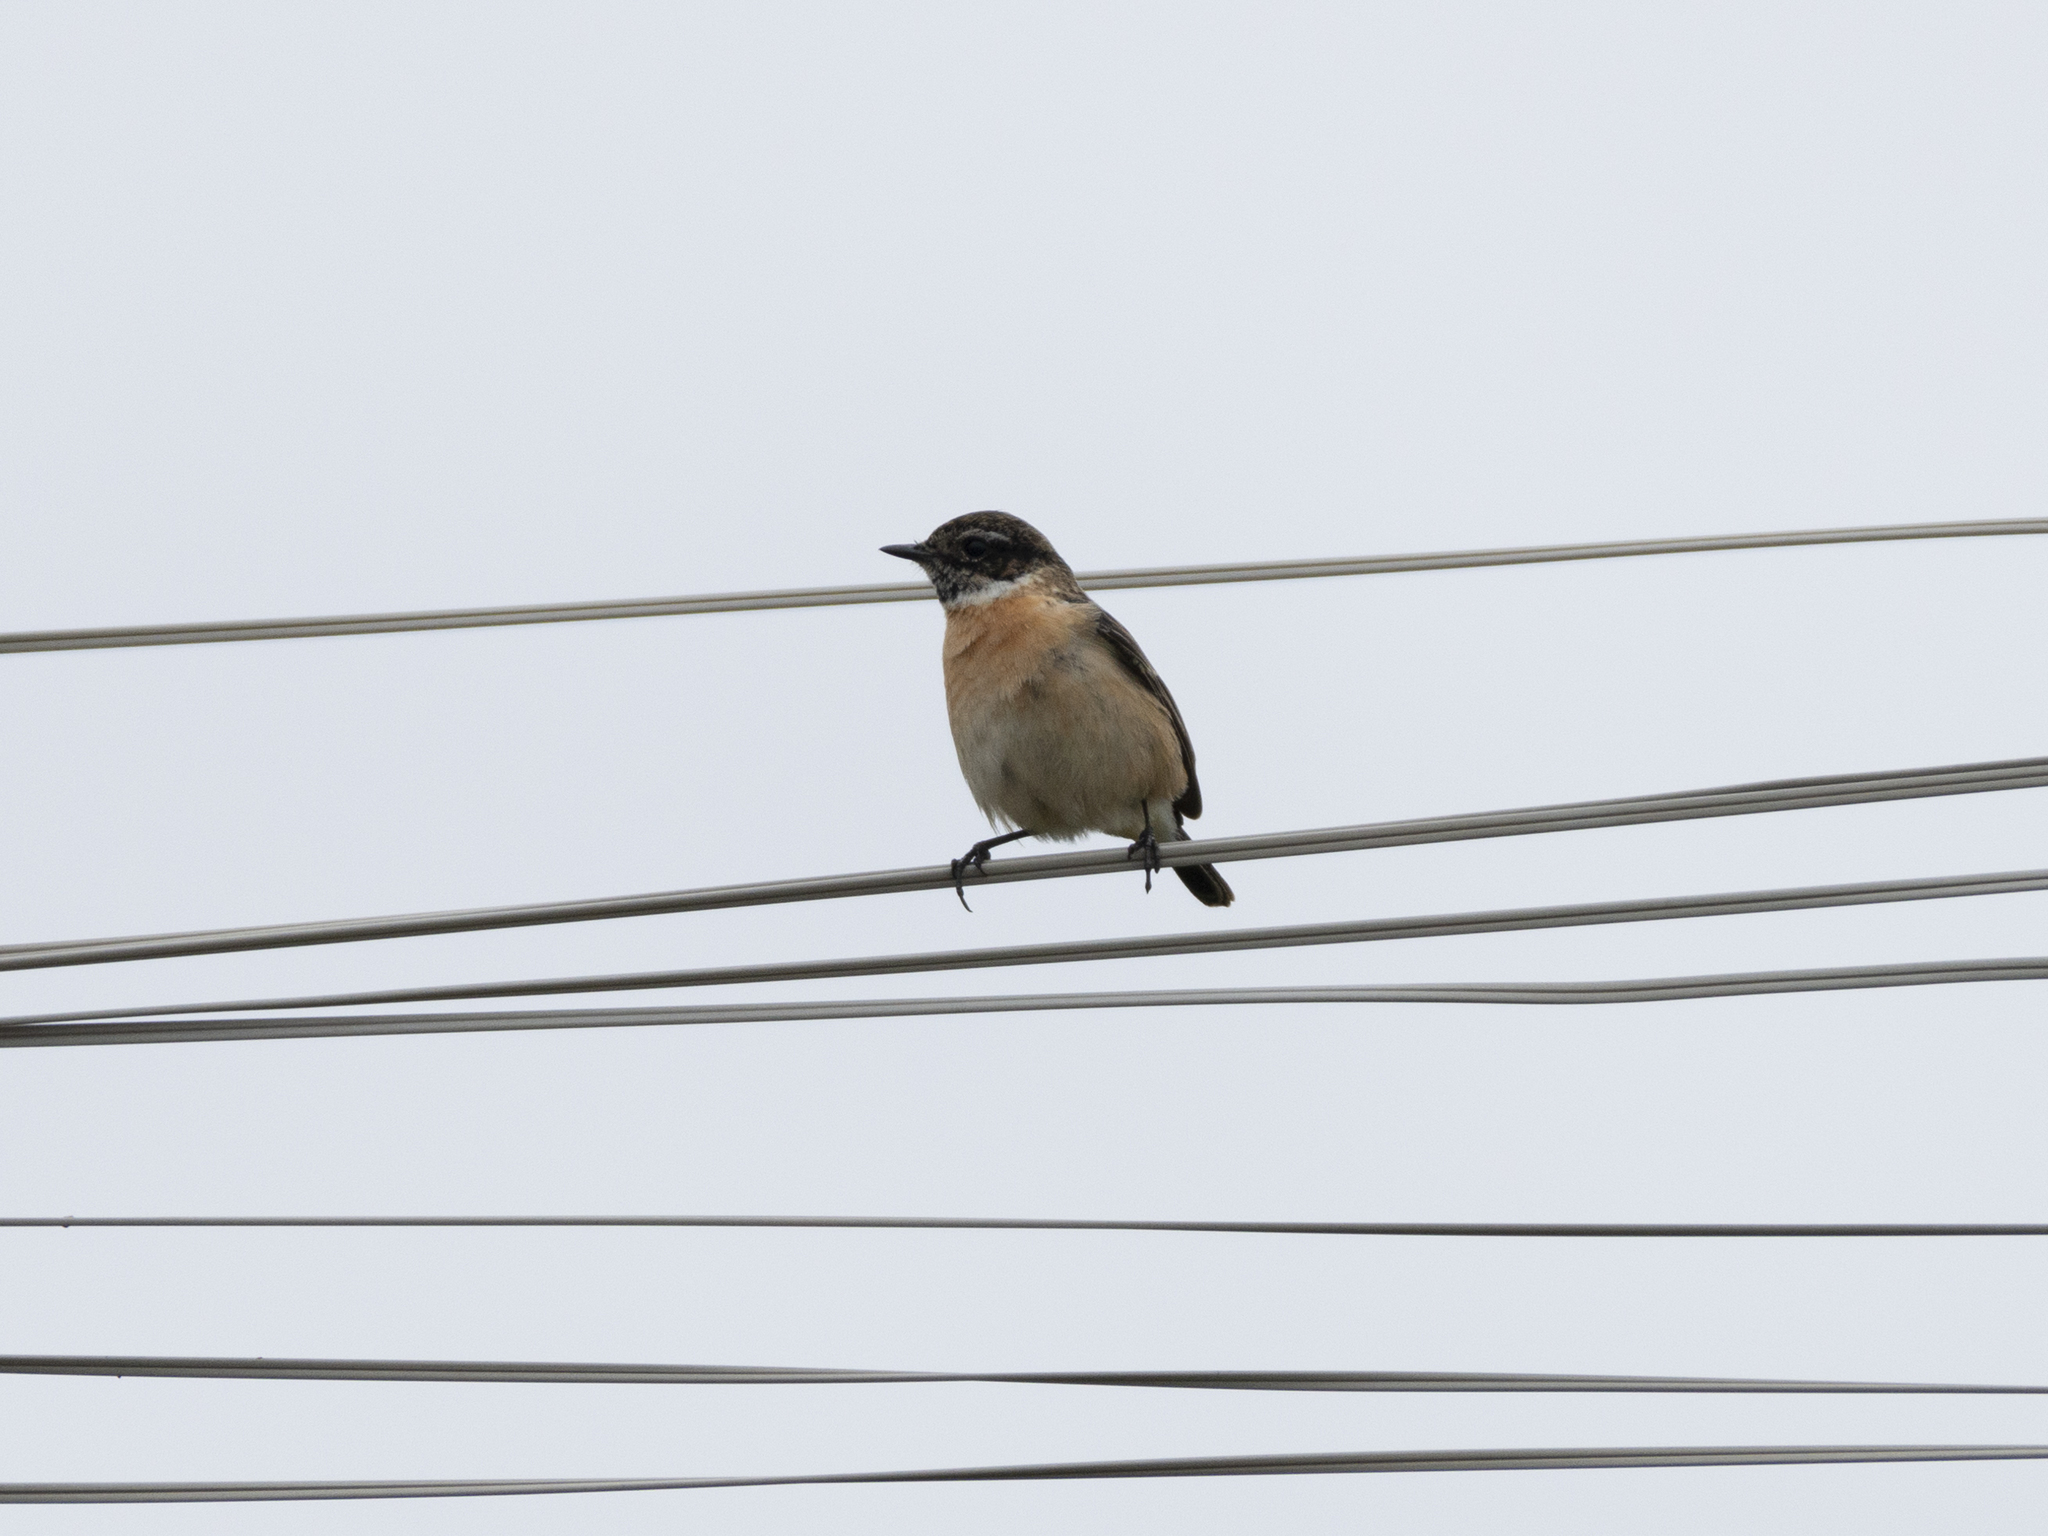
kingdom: Animalia
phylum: Chordata
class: Aves
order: Passeriformes
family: Muscicapidae
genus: Saxicola
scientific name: Saxicola maurus
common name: Siberian stonechat
